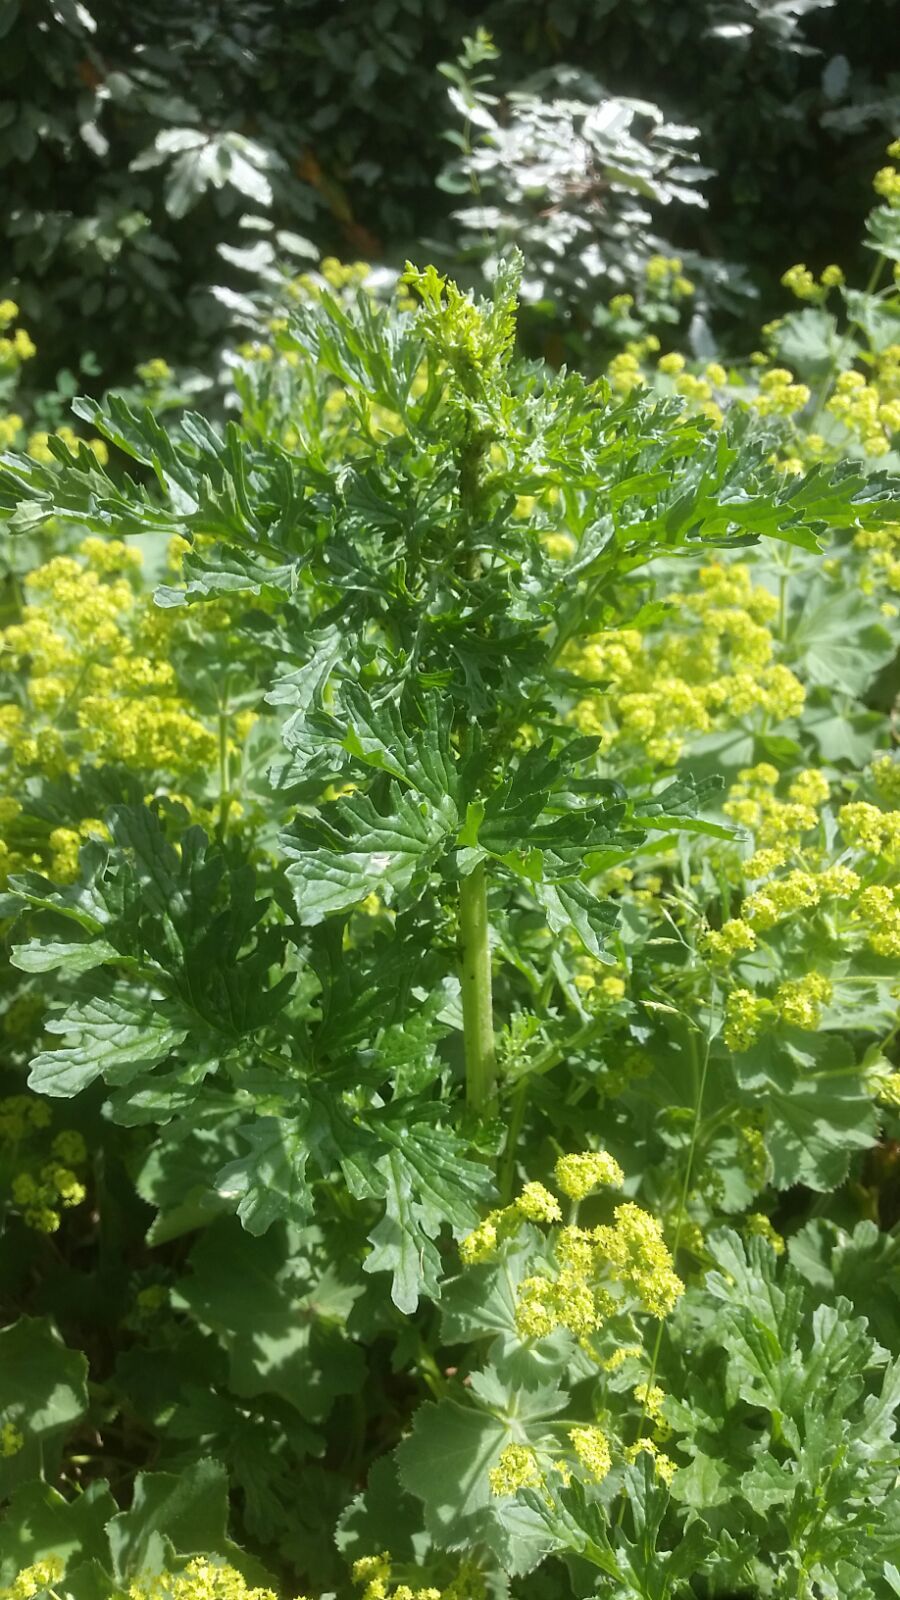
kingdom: Plantae
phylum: Tracheophyta
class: Magnoliopsida
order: Asterales
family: Asteraceae
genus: Jacobaea
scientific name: Jacobaea vulgaris
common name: Stinking willie
